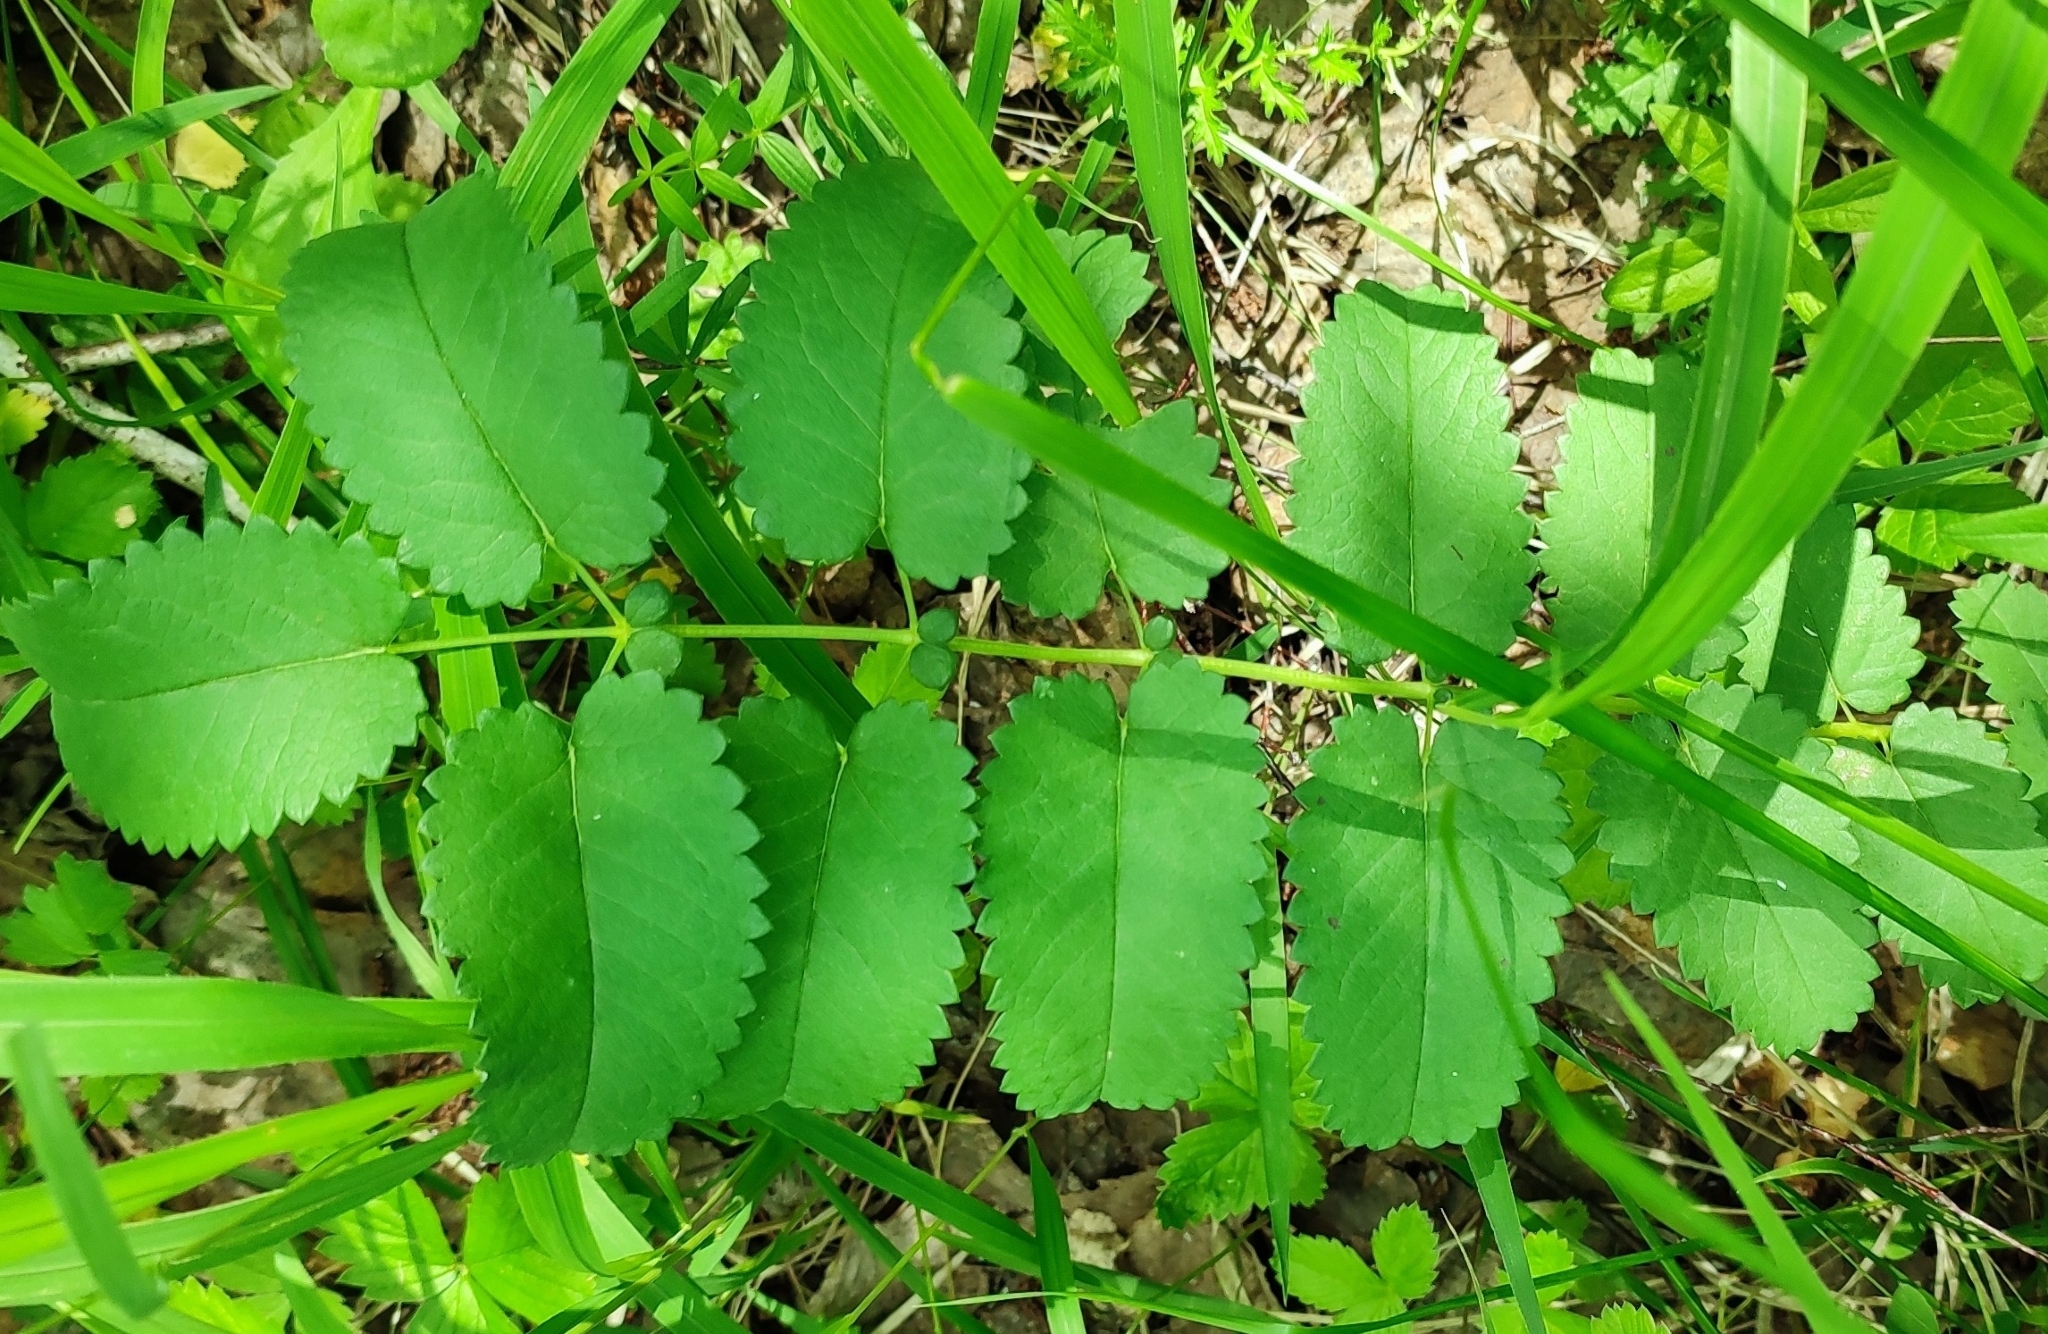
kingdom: Plantae
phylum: Tracheophyta
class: Magnoliopsida
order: Rosales
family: Rosaceae
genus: Sanguisorba
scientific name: Sanguisorba officinalis
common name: Great burnet
